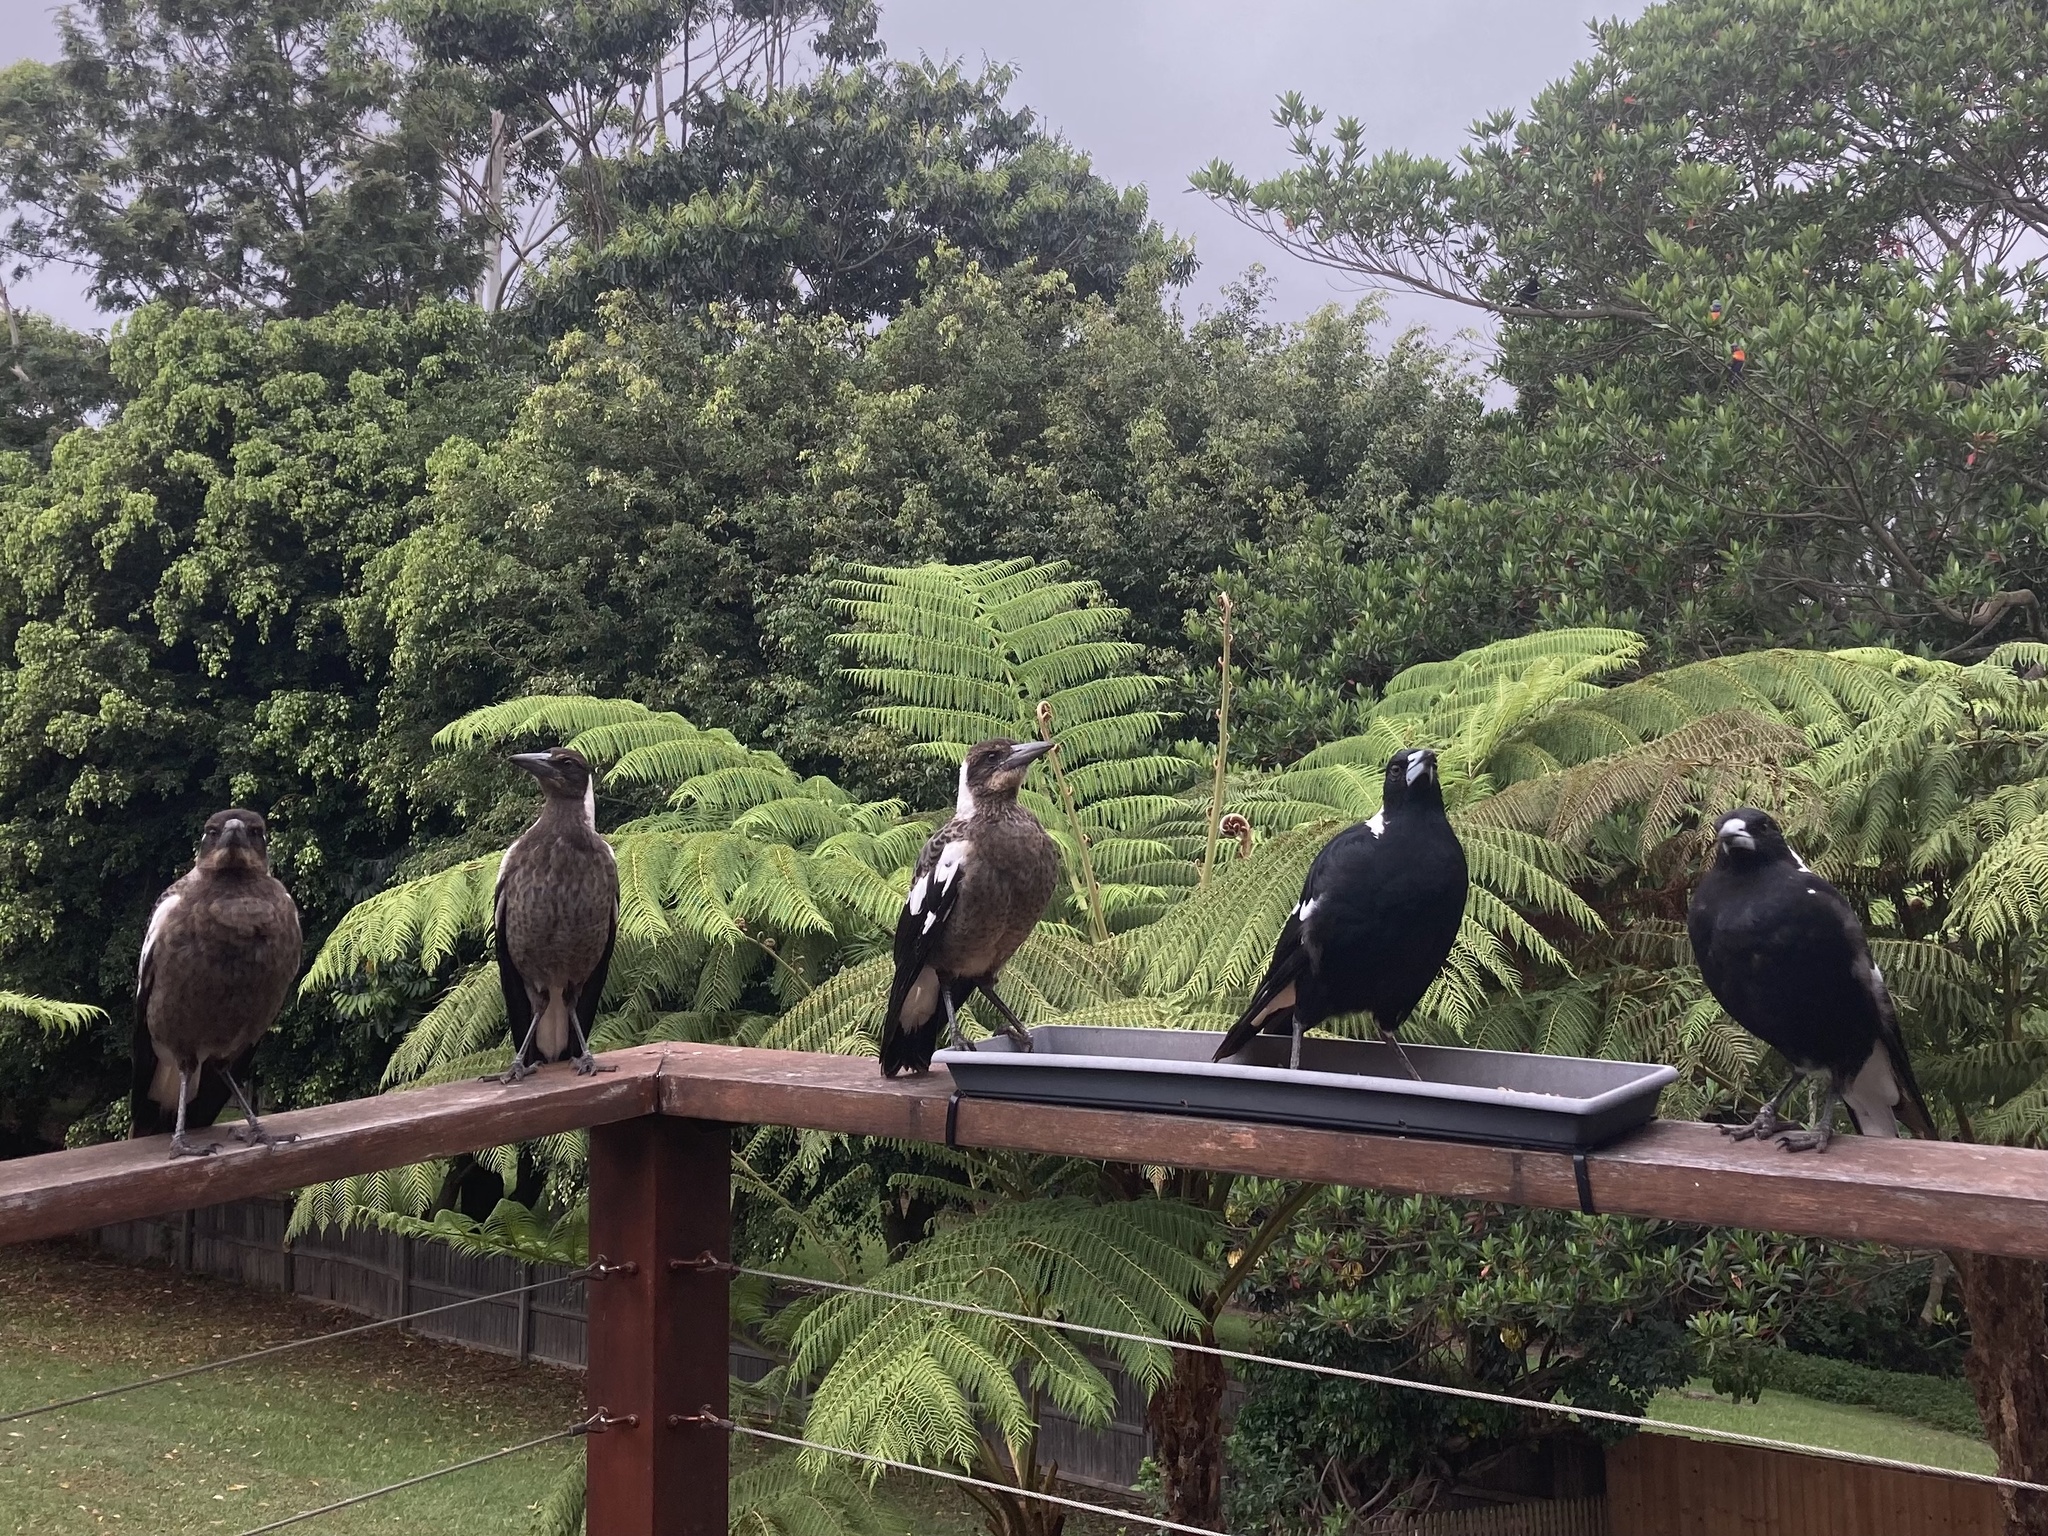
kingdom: Animalia
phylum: Chordata
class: Aves
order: Passeriformes
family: Cracticidae
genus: Gymnorhina
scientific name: Gymnorhina tibicen
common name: Australian magpie
